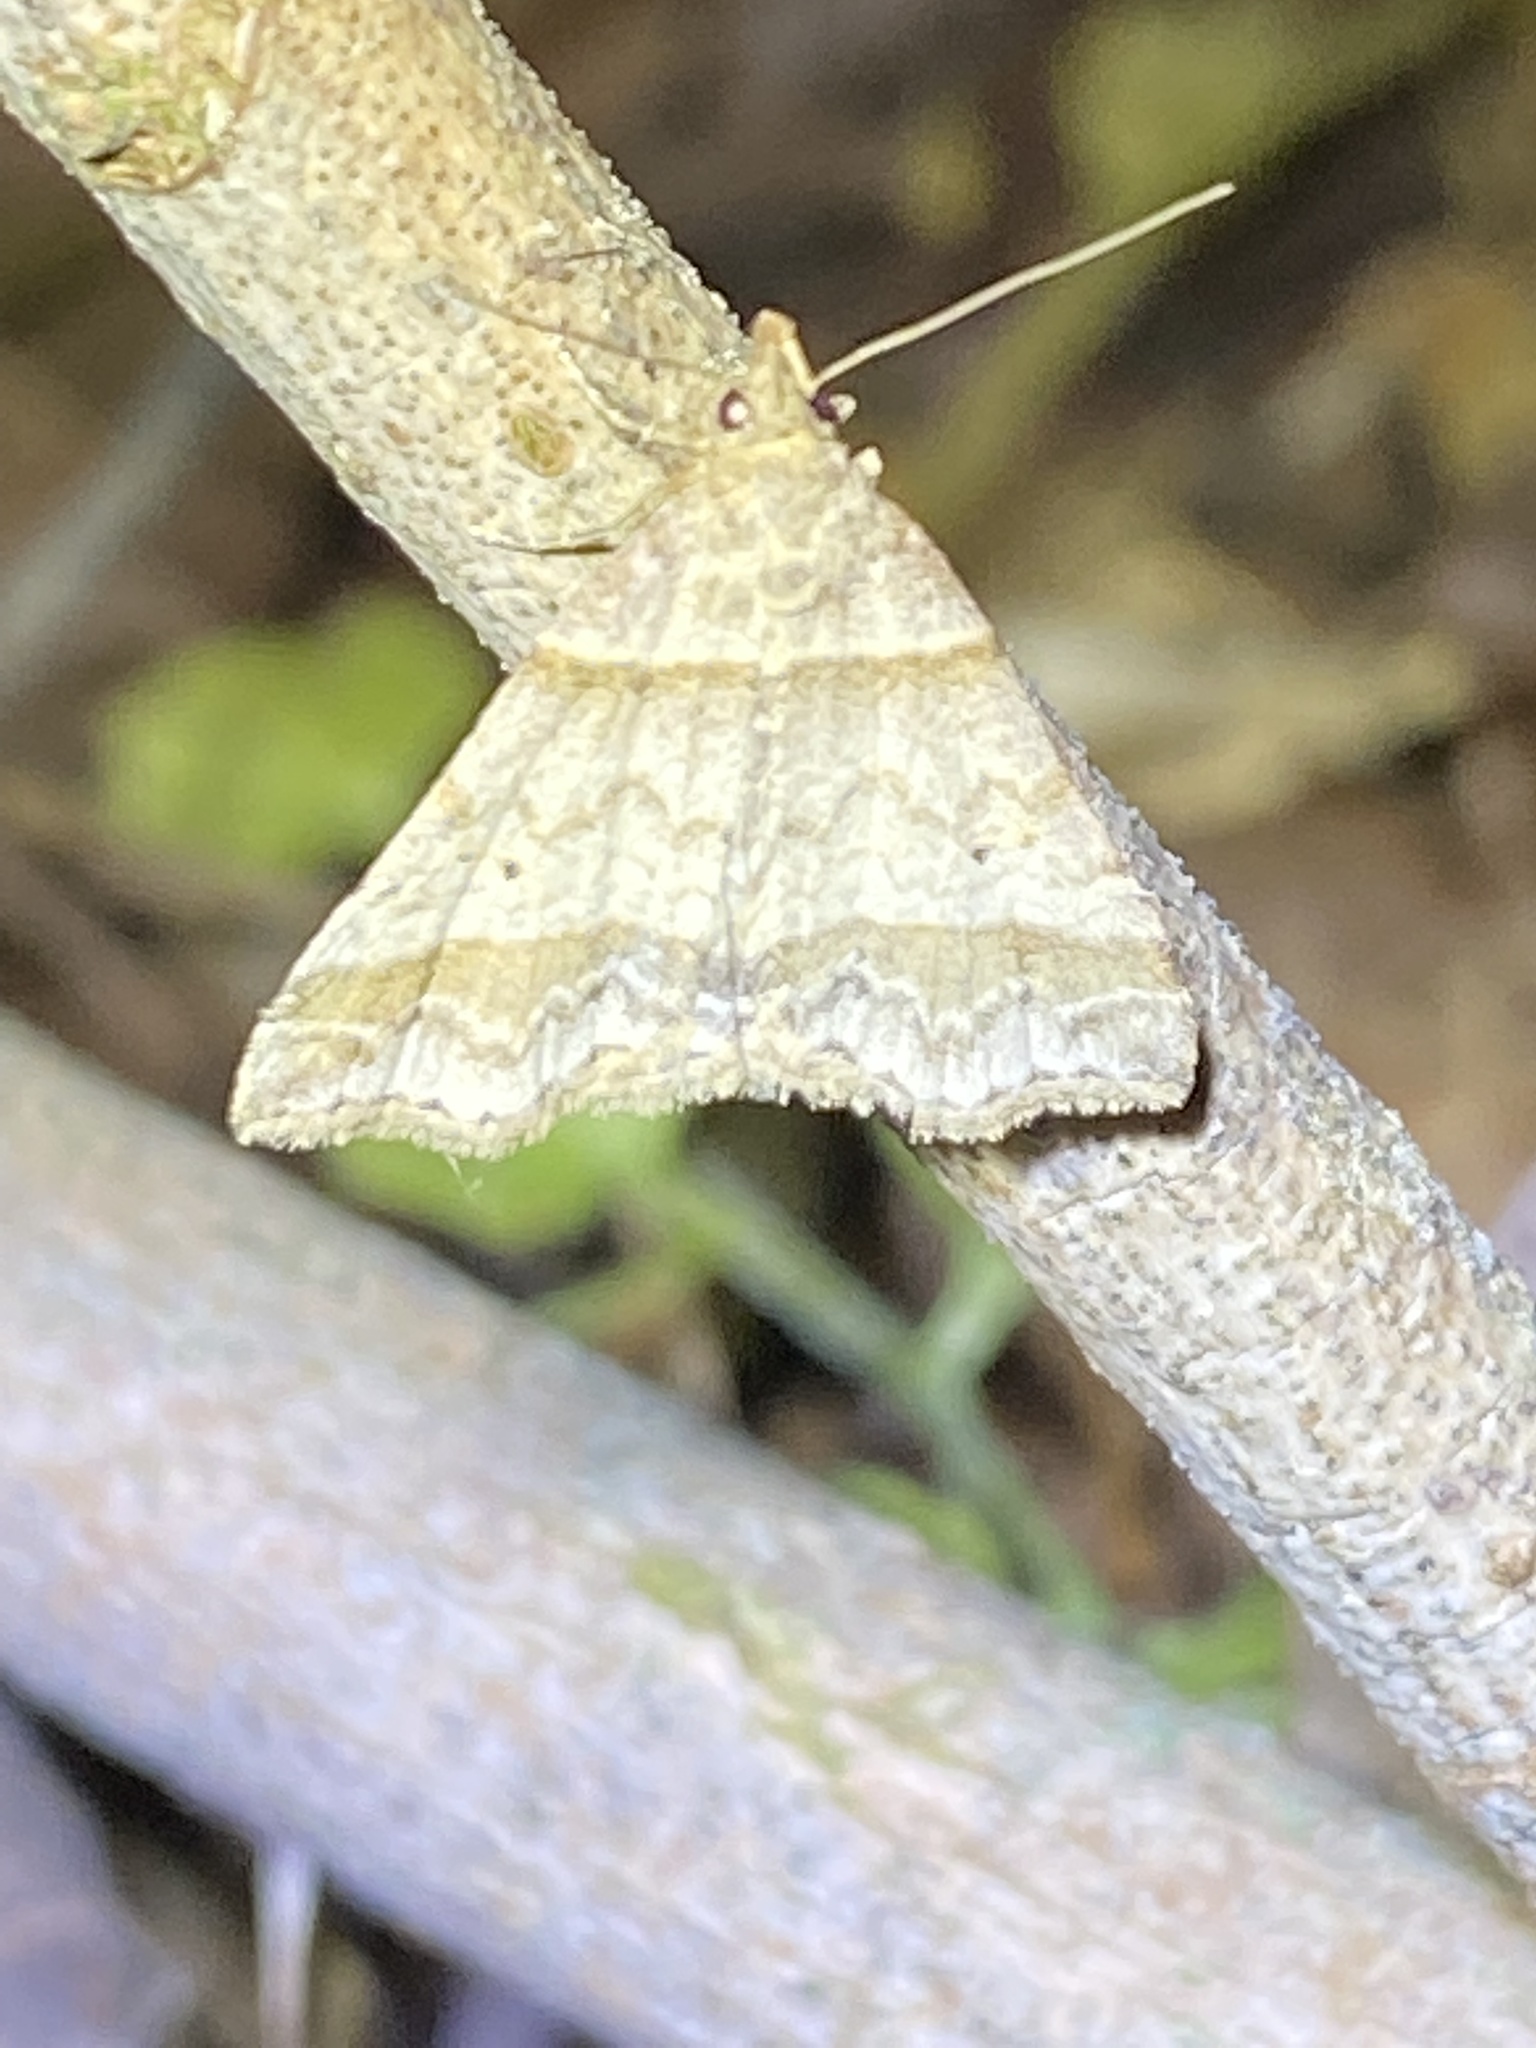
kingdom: Animalia
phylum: Arthropoda
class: Insecta
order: Lepidoptera
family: Erebidae
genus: Phaeolita
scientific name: Phaeolita pyramusalis
